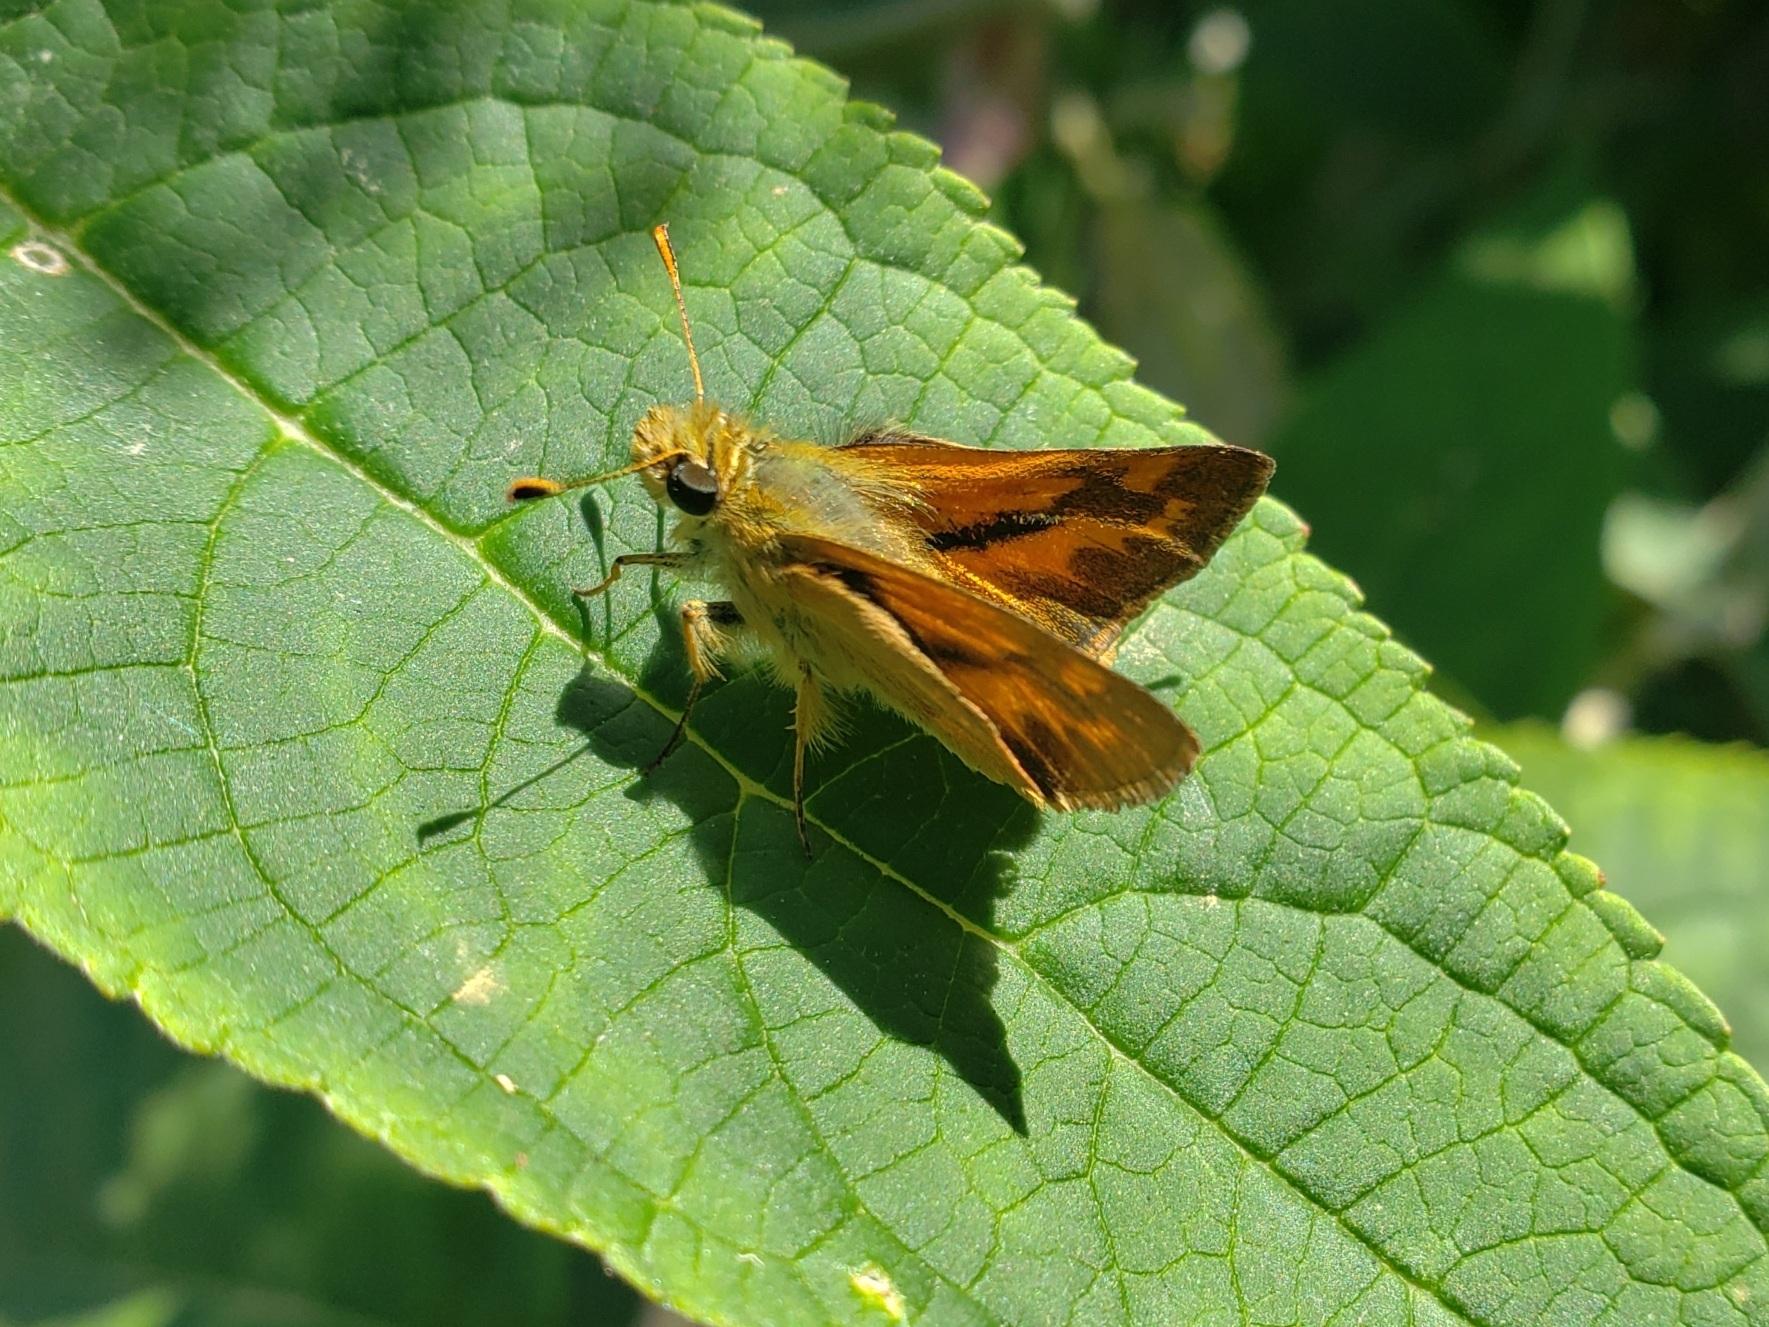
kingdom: Animalia
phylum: Arthropoda
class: Insecta
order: Lepidoptera
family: Hesperiidae
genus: Ochlodes
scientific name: Ochlodes sylvanoides
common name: Woodland skipper
